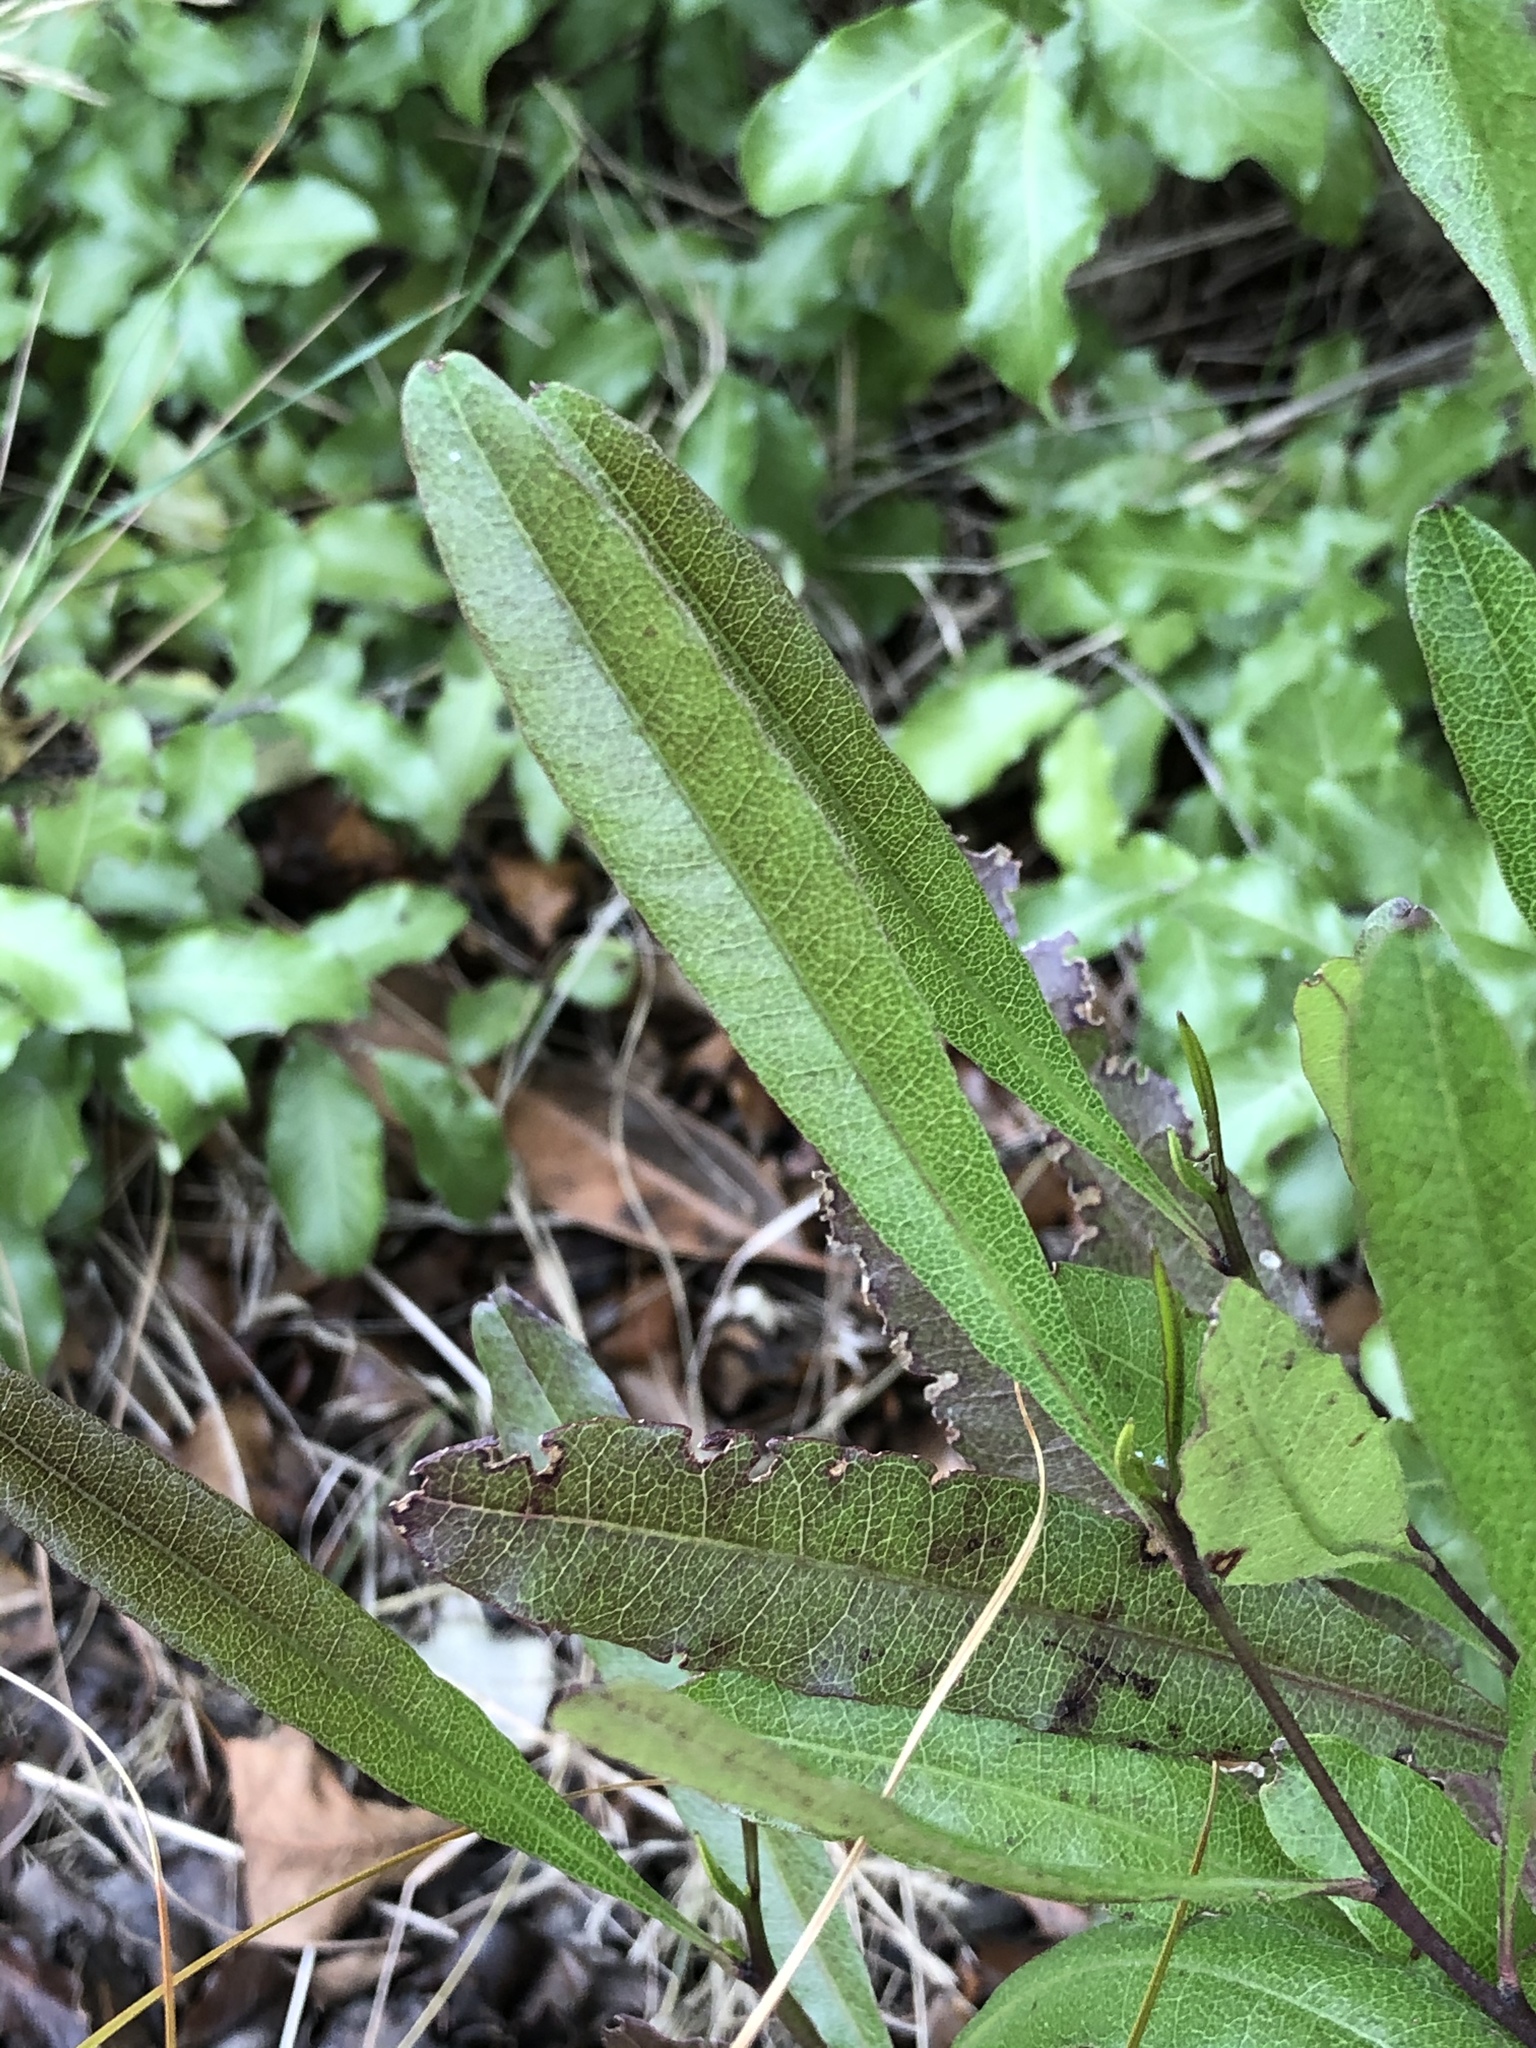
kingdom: Plantae
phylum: Tracheophyta
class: Magnoliopsida
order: Sapindales
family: Sapindaceae
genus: Dodonaea
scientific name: Dodonaea viscosa
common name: Hopbush
